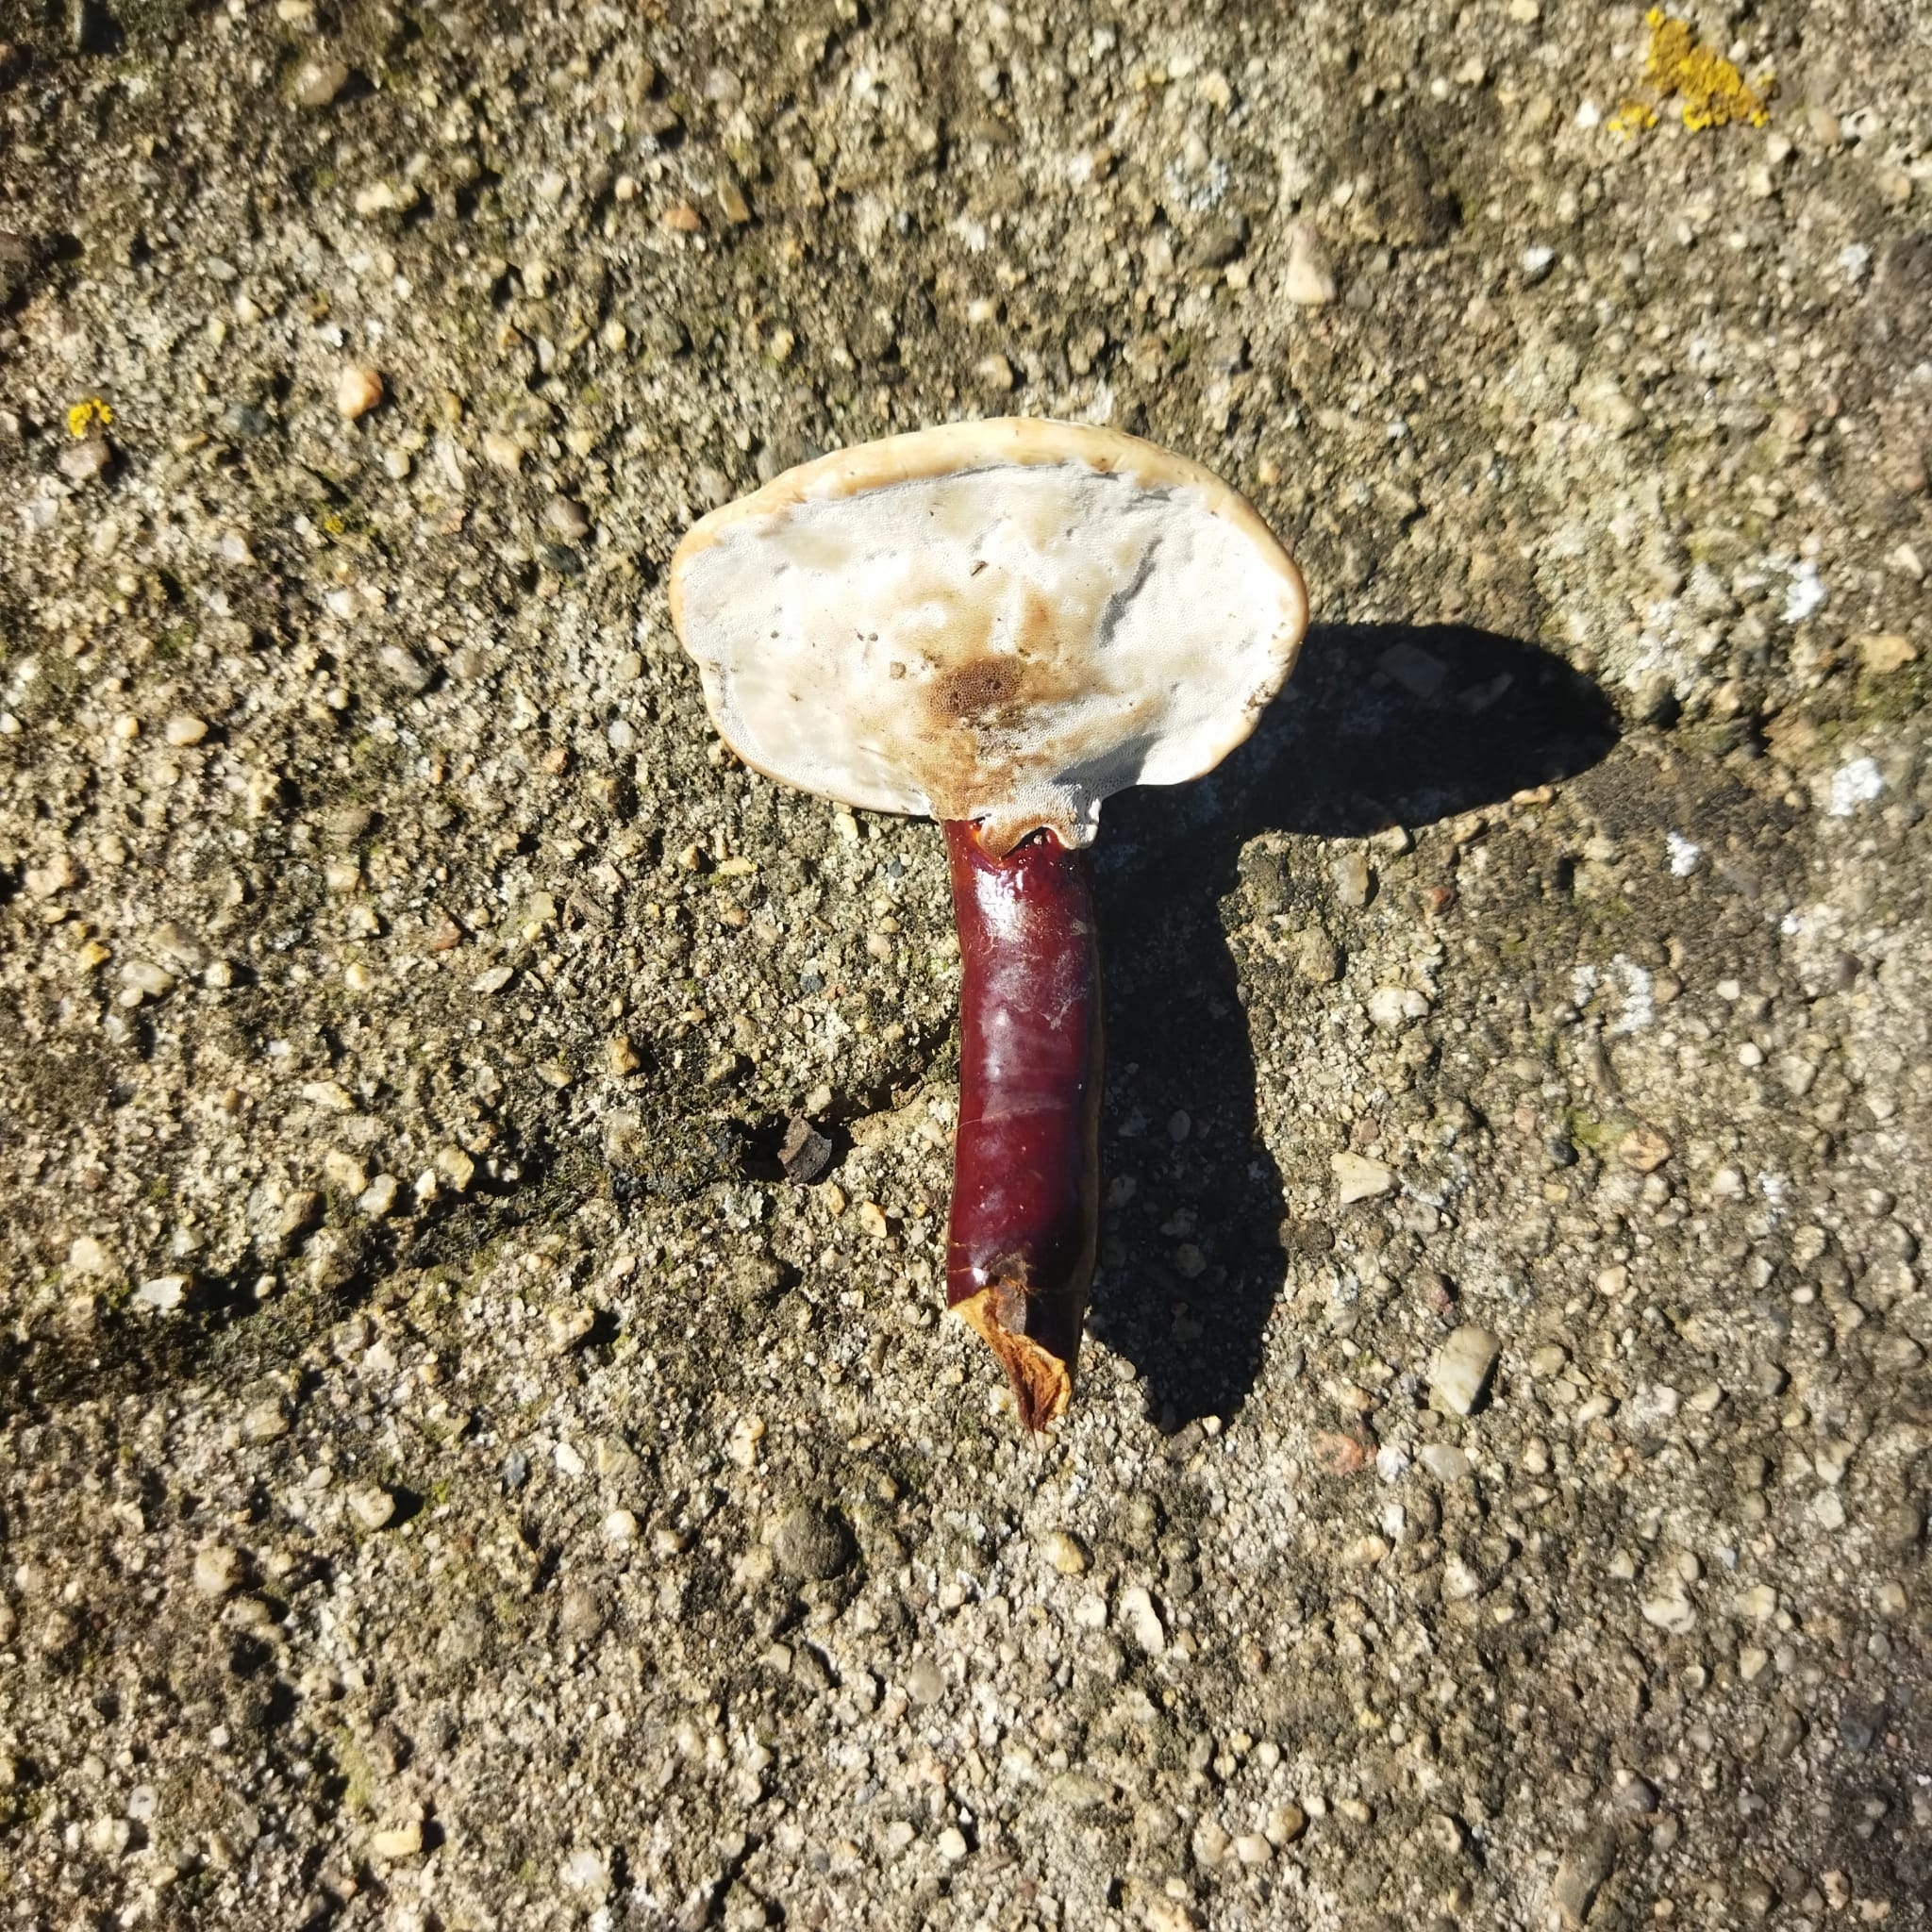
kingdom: Fungi
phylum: Basidiomycota
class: Agaricomycetes
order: Polyporales
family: Polyporaceae
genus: Ganoderma
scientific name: Ganoderma lucidum
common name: Lacquered bracket
